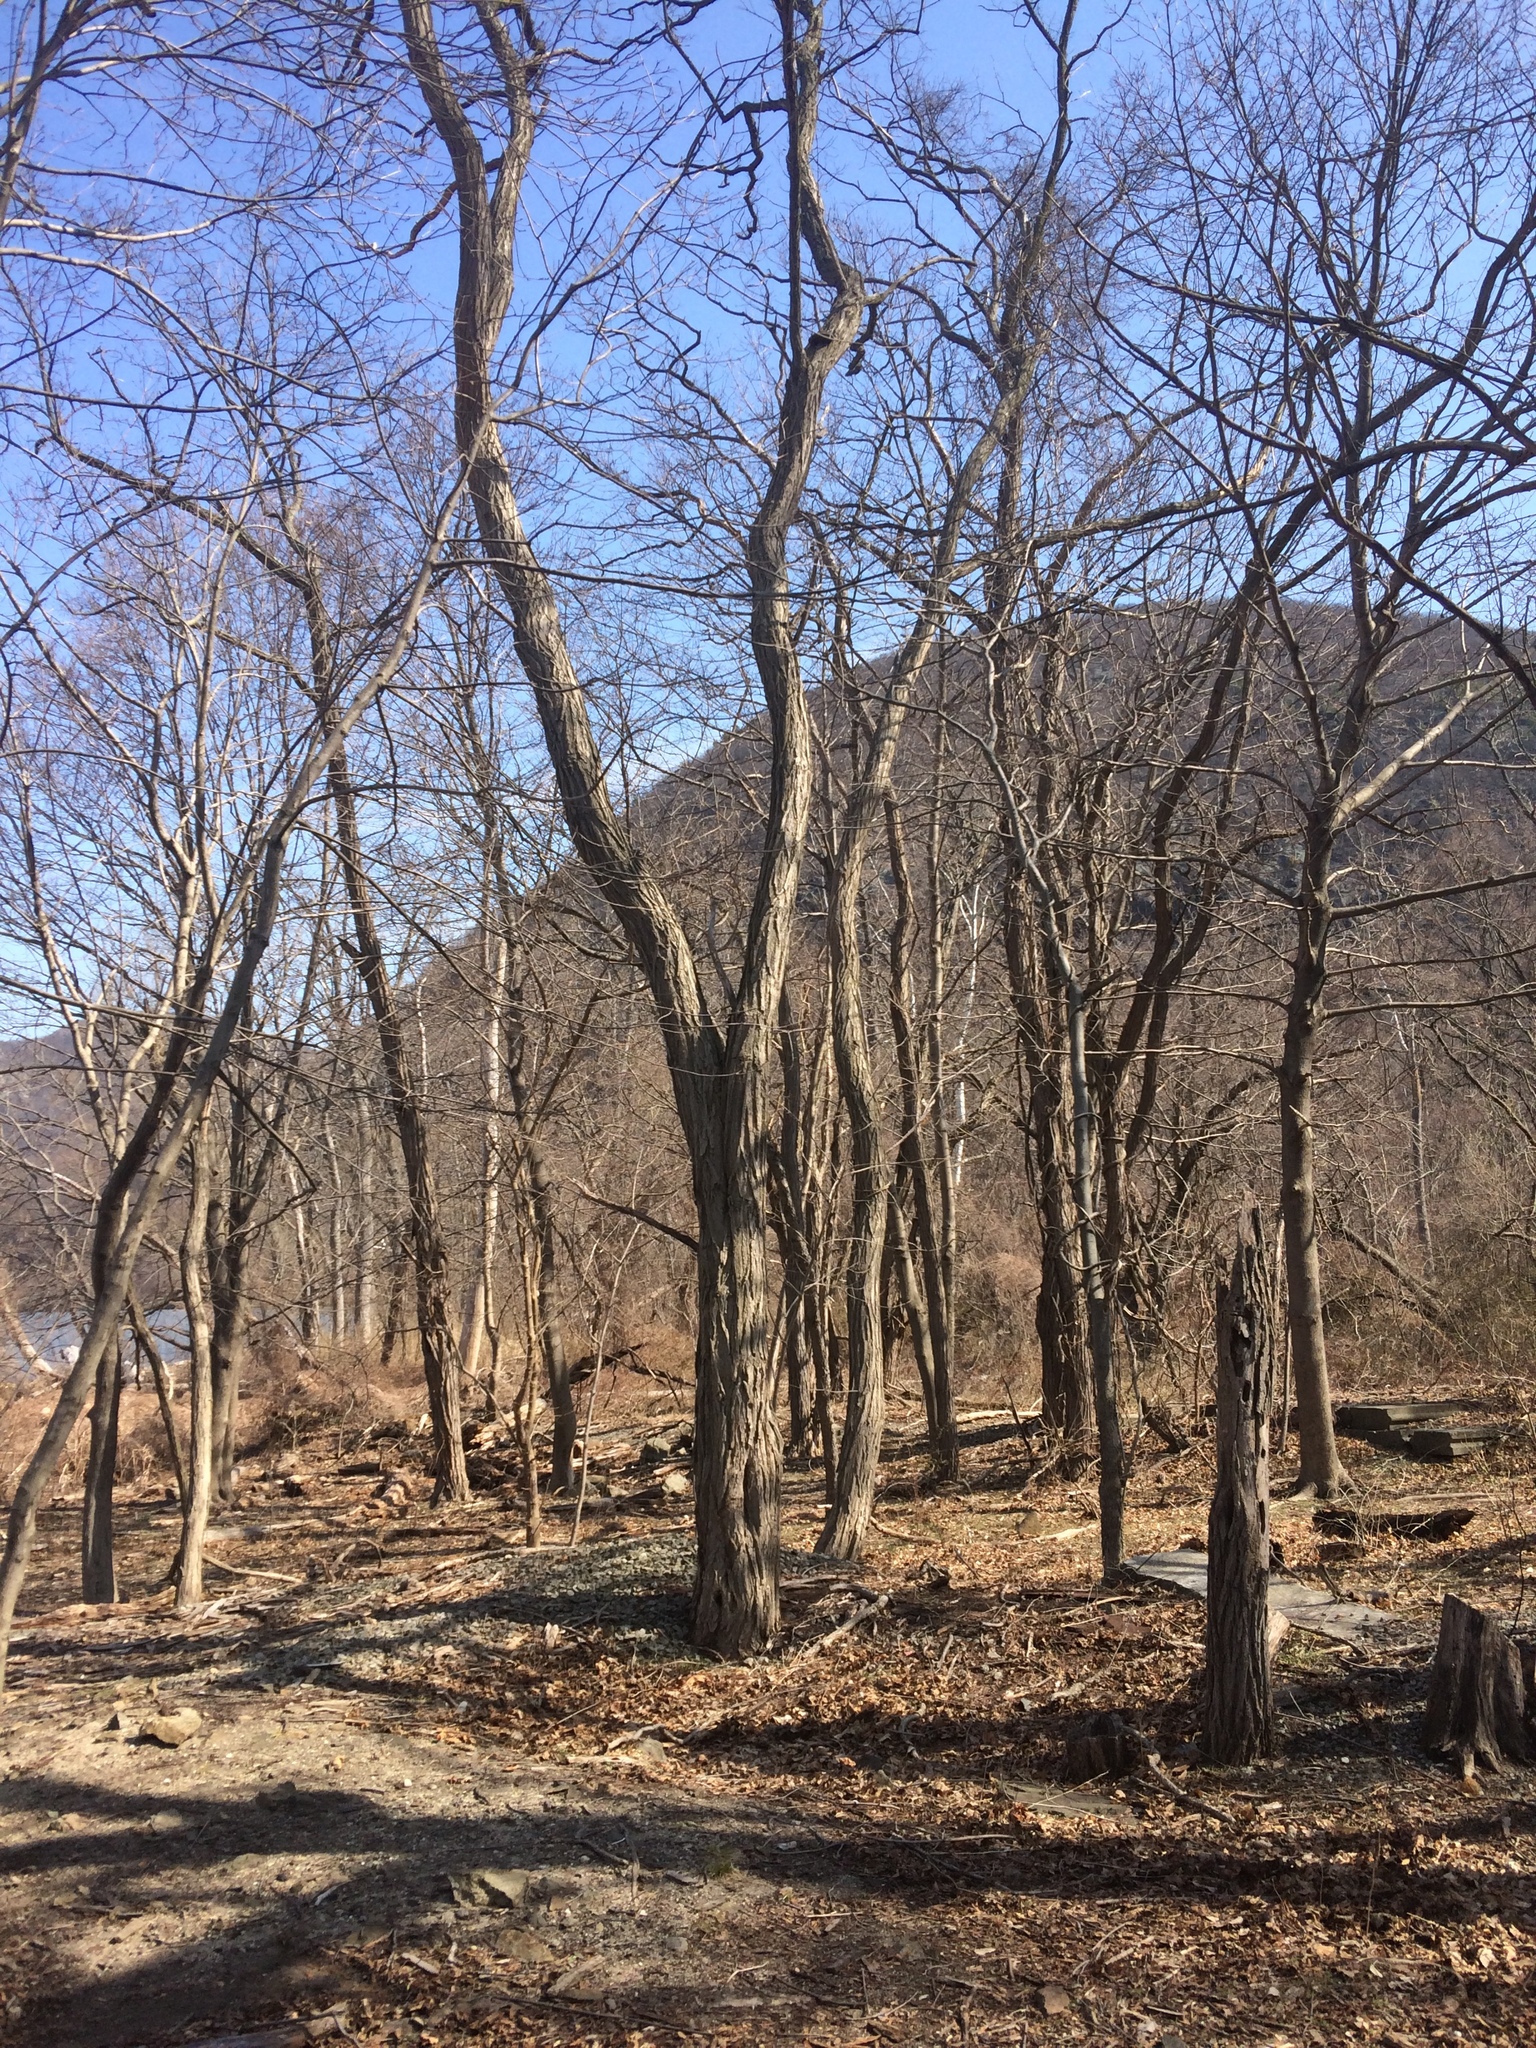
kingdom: Plantae
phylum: Tracheophyta
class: Magnoliopsida
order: Fabales
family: Fabaceae
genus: Robinia
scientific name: Robinia pseudoacacia
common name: Black locust
